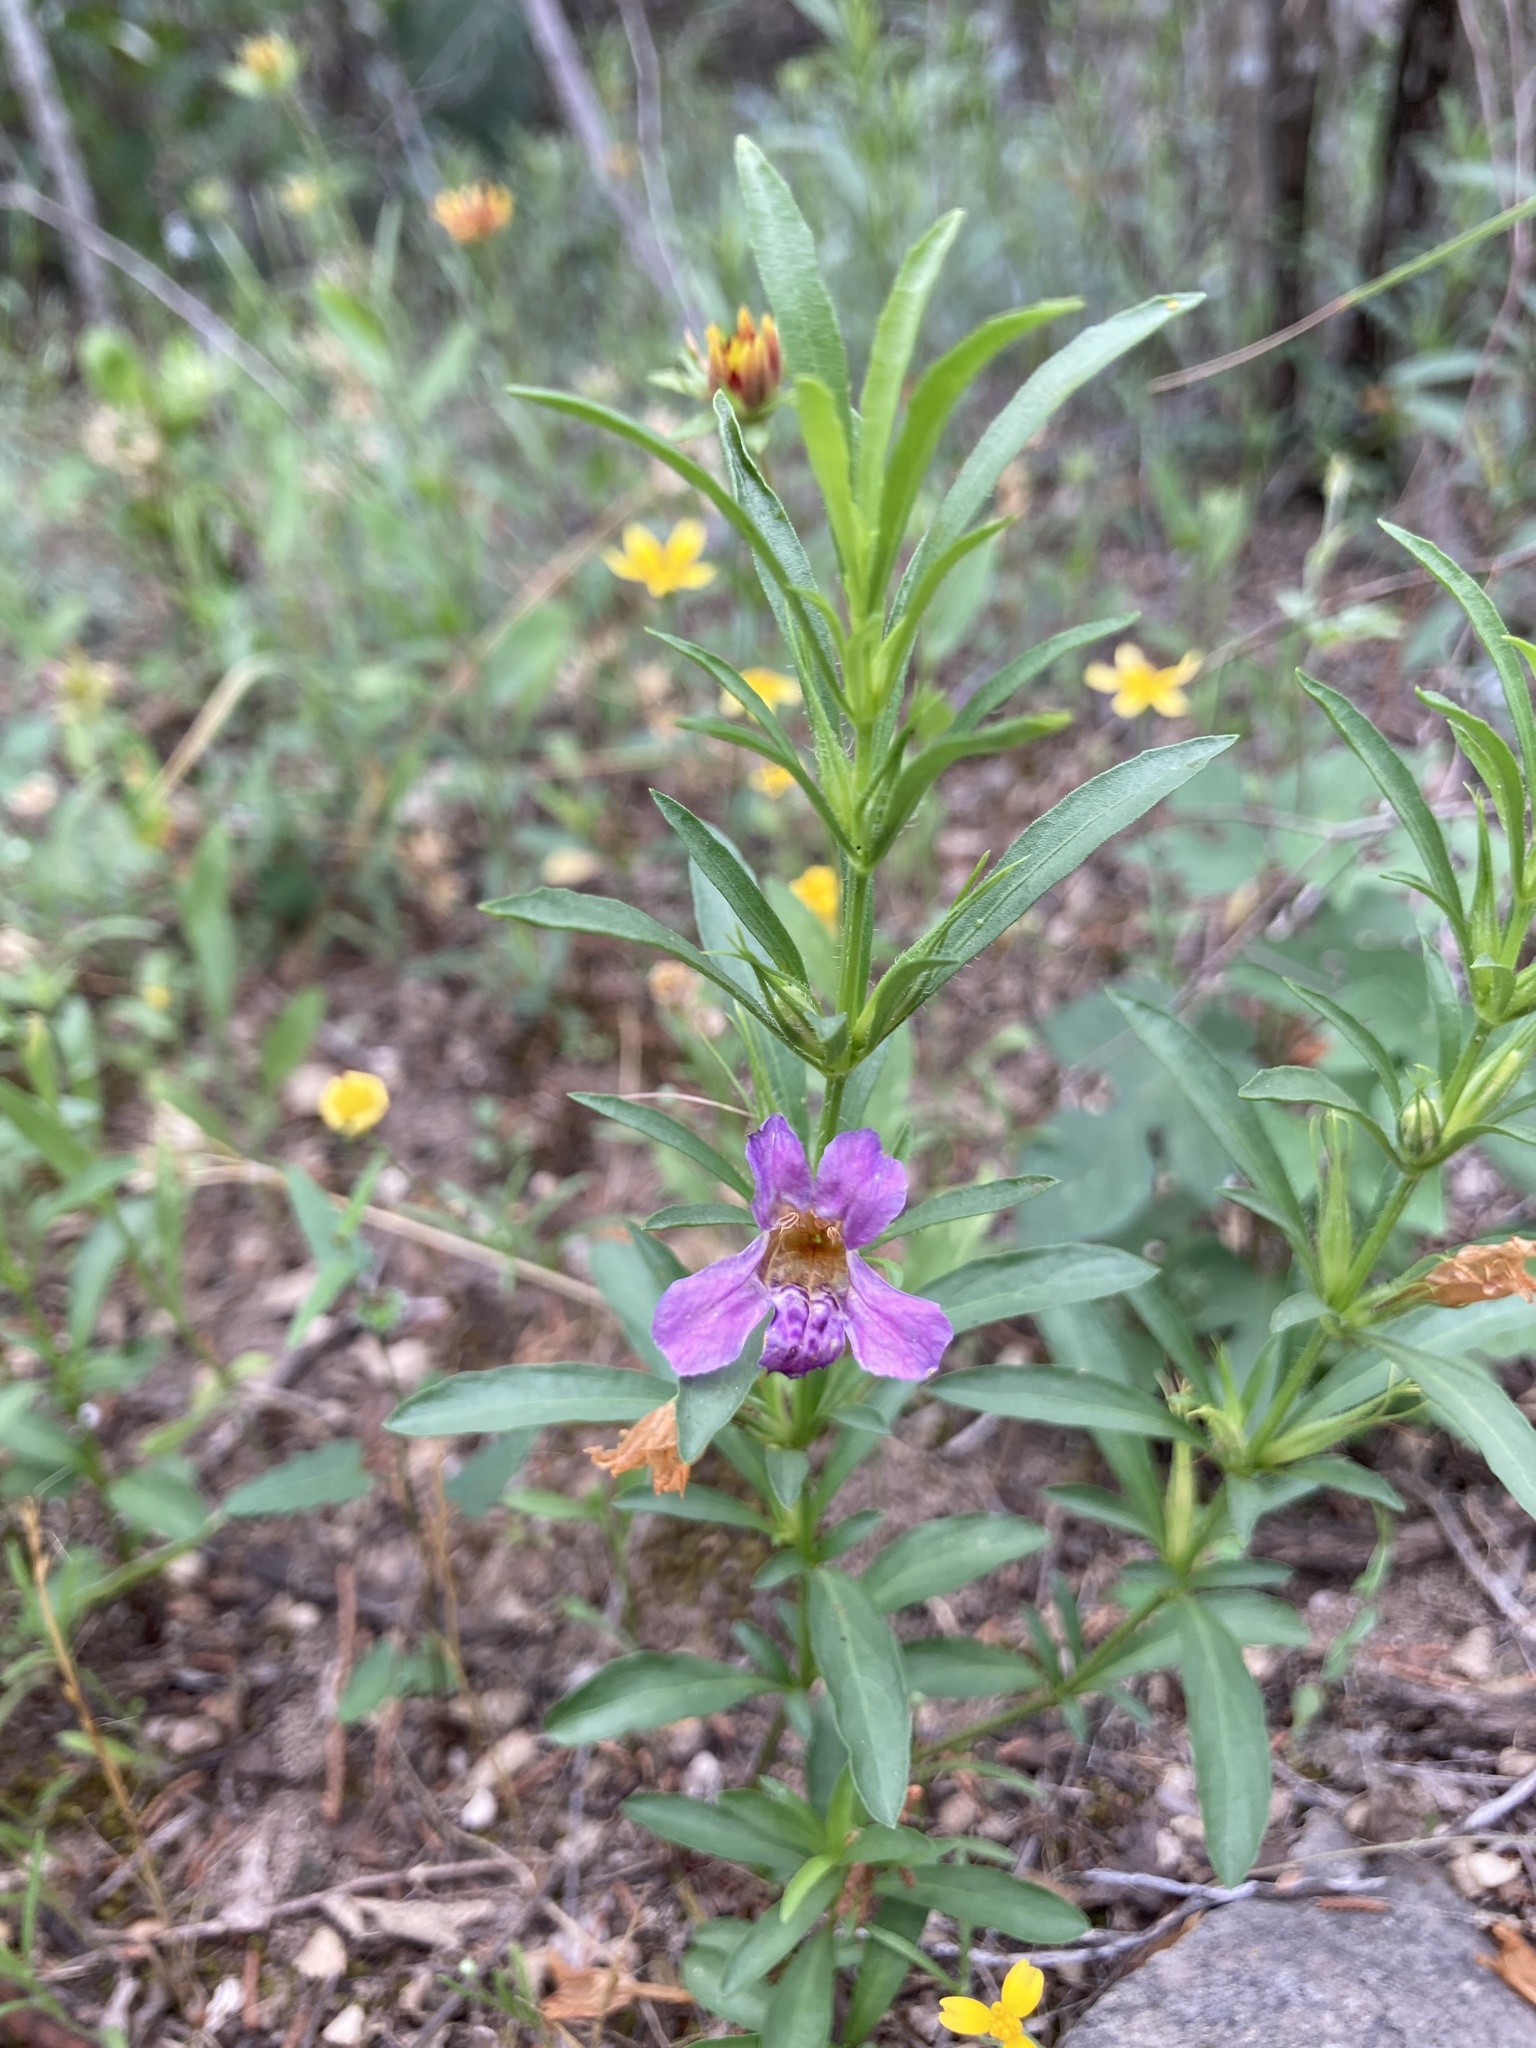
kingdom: Plantae
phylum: Tracheophyta
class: Magnoliopsida
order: Lamiales
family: Acanthaceae
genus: Dyschoriste
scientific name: Dyschoriste linearis
